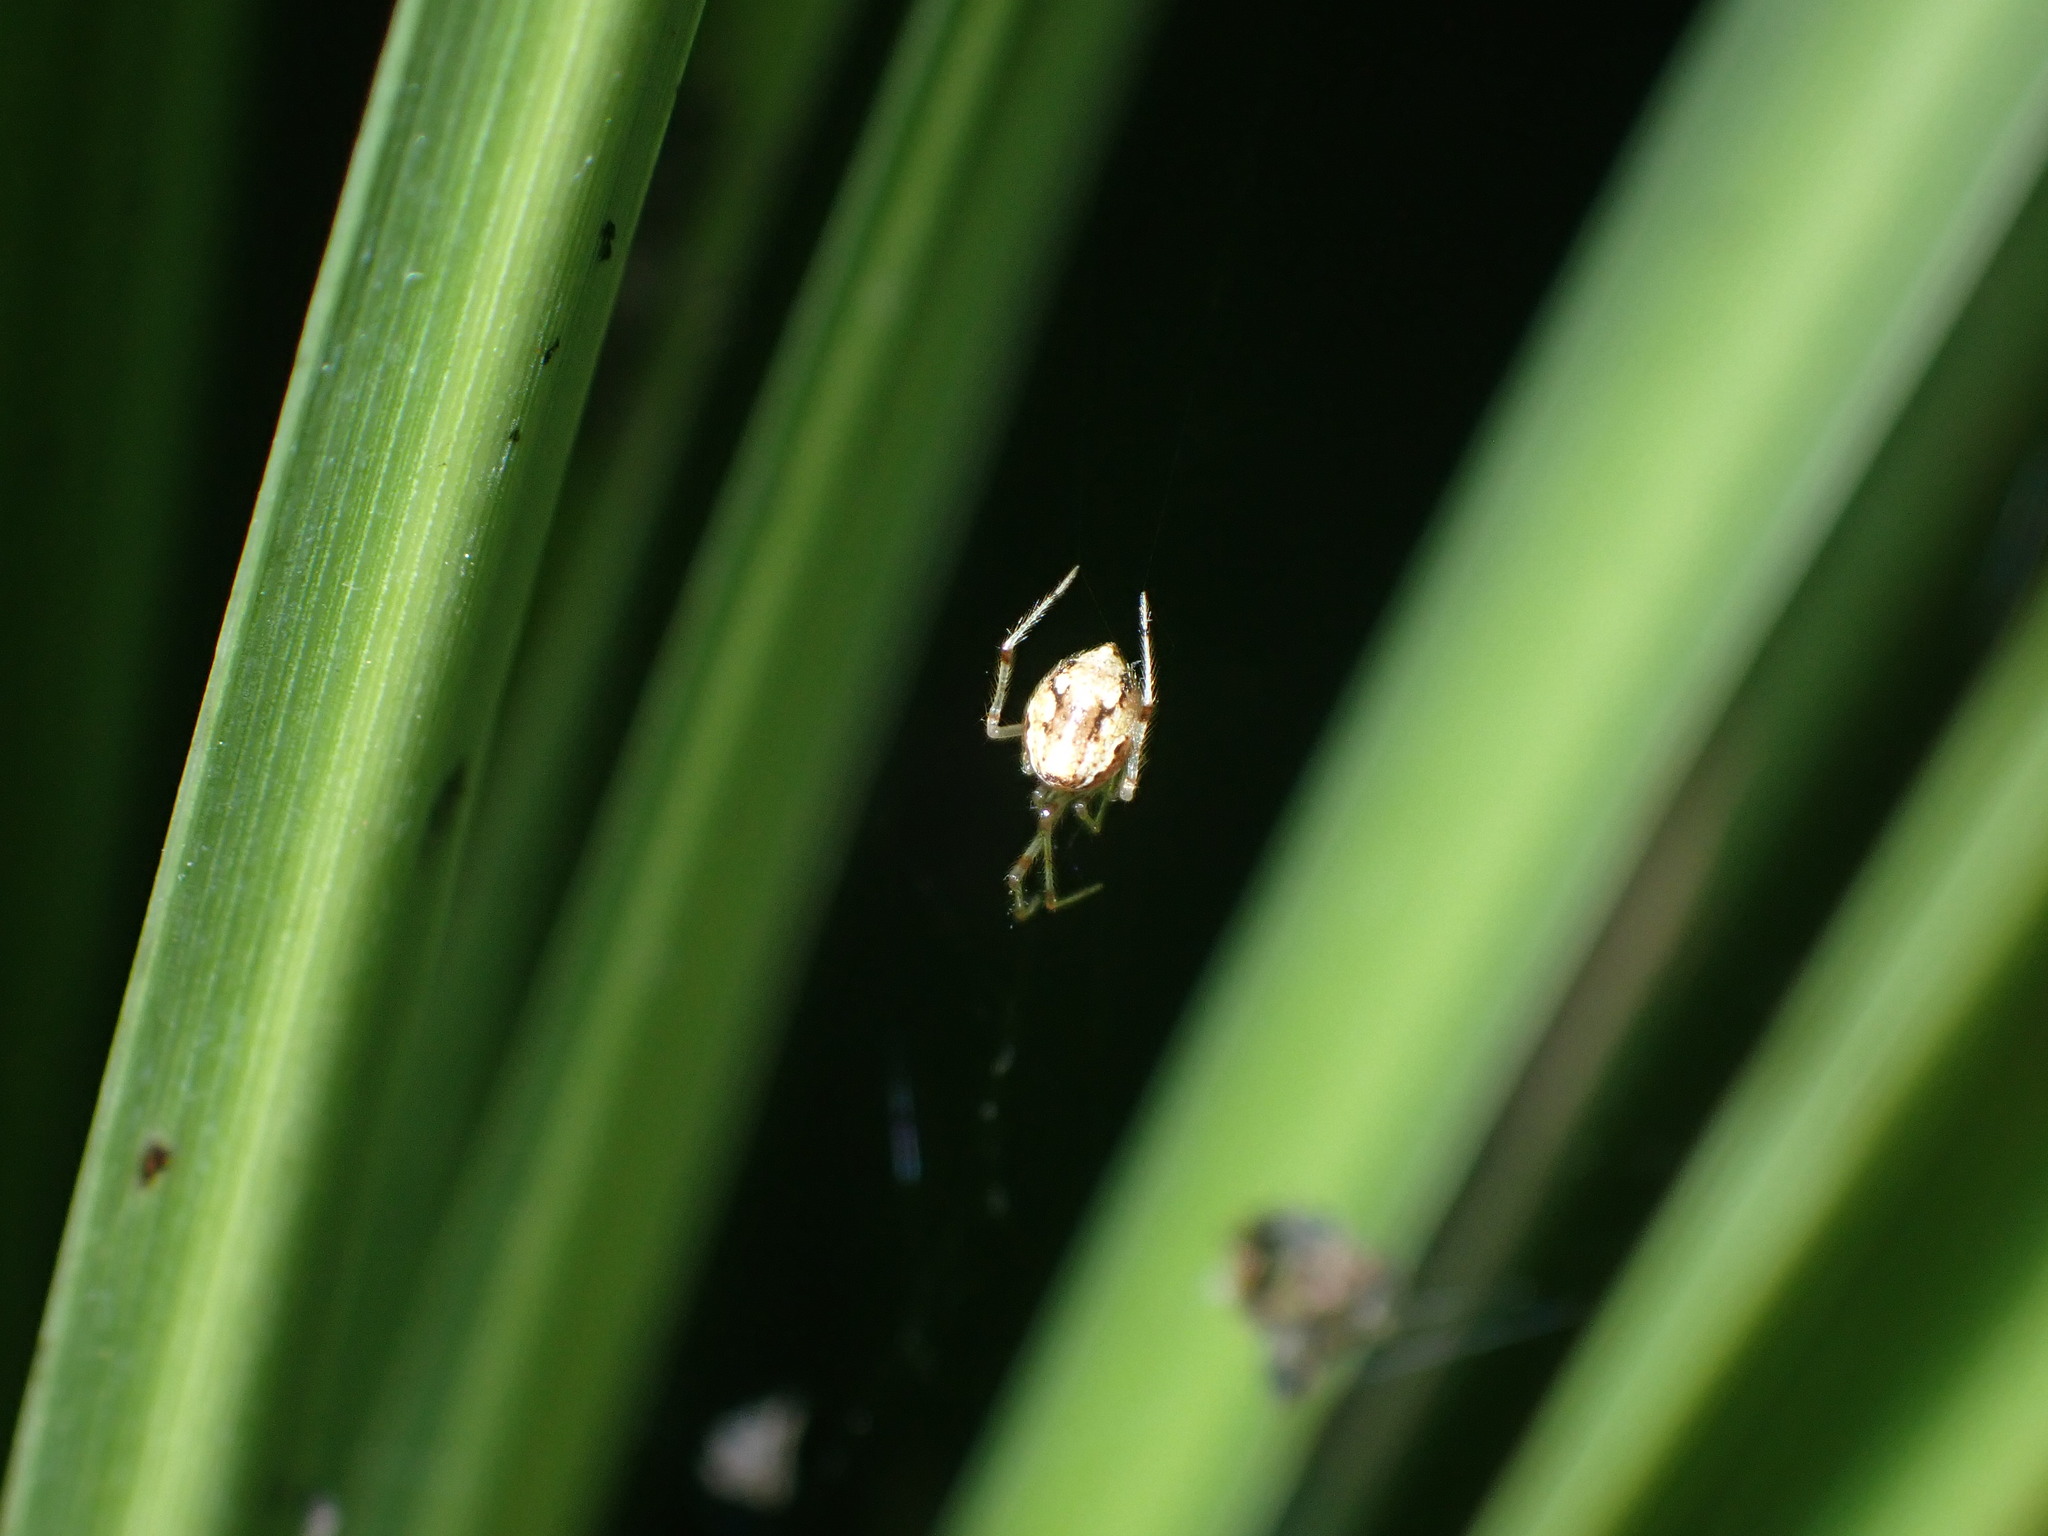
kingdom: Animalia
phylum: Arthropoda
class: Arachnida
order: Araneae
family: Theridiidae
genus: Cryptachaea
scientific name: Cryptachaea meraukensis
